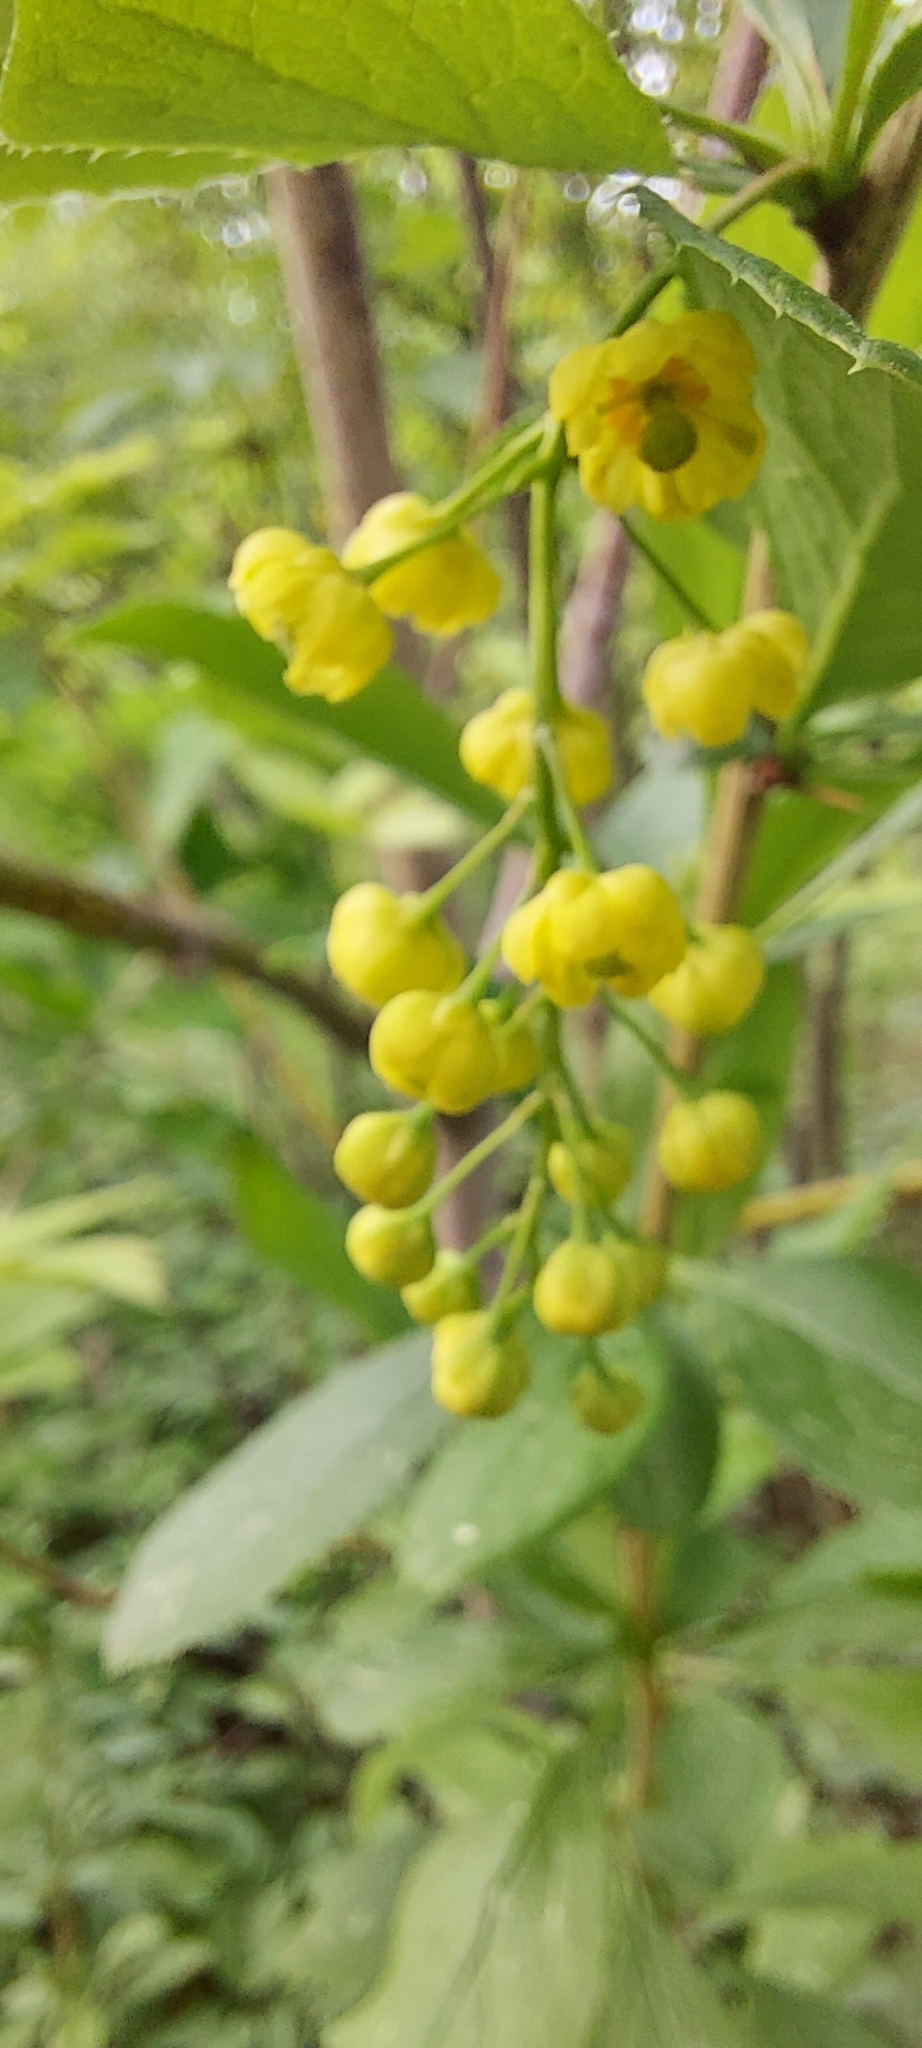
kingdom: Plantae
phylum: Tracheophyta
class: Magnoliopsida
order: Ranunculales
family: Berberidaceae
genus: Berberis
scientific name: Berberis vulgaris
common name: Barberry
